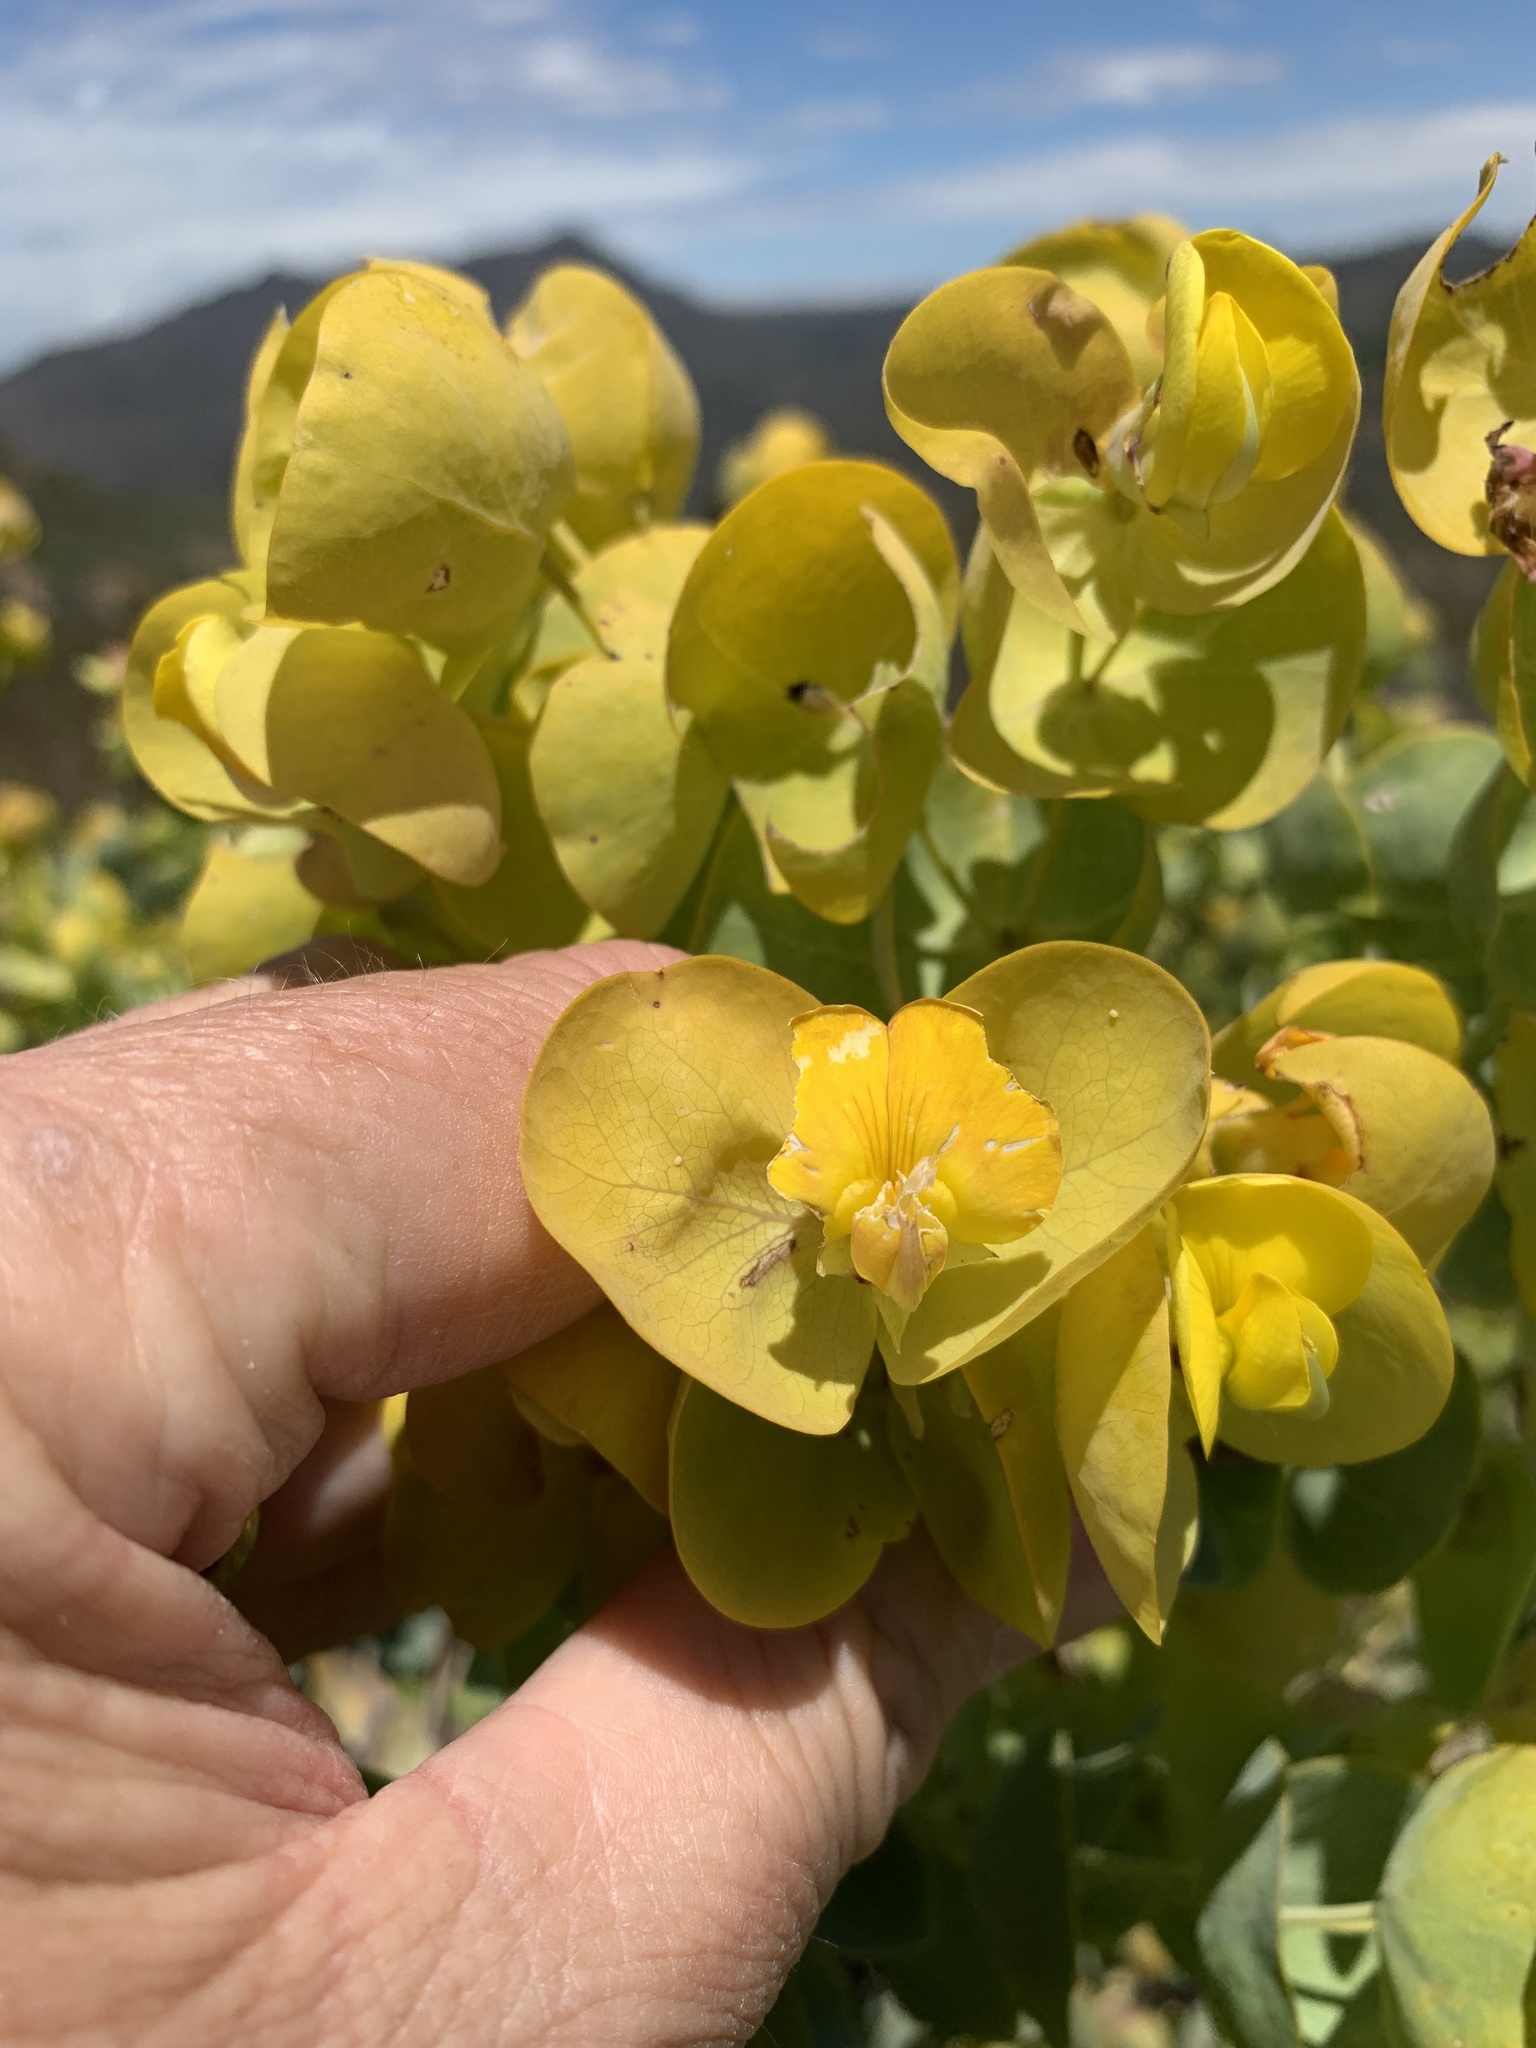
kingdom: Plantae
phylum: Tracheophyta
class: Magnoliopsida
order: Fabales
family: Fabaceae
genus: Rafnia
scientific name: Rafnia amplexicaulis
